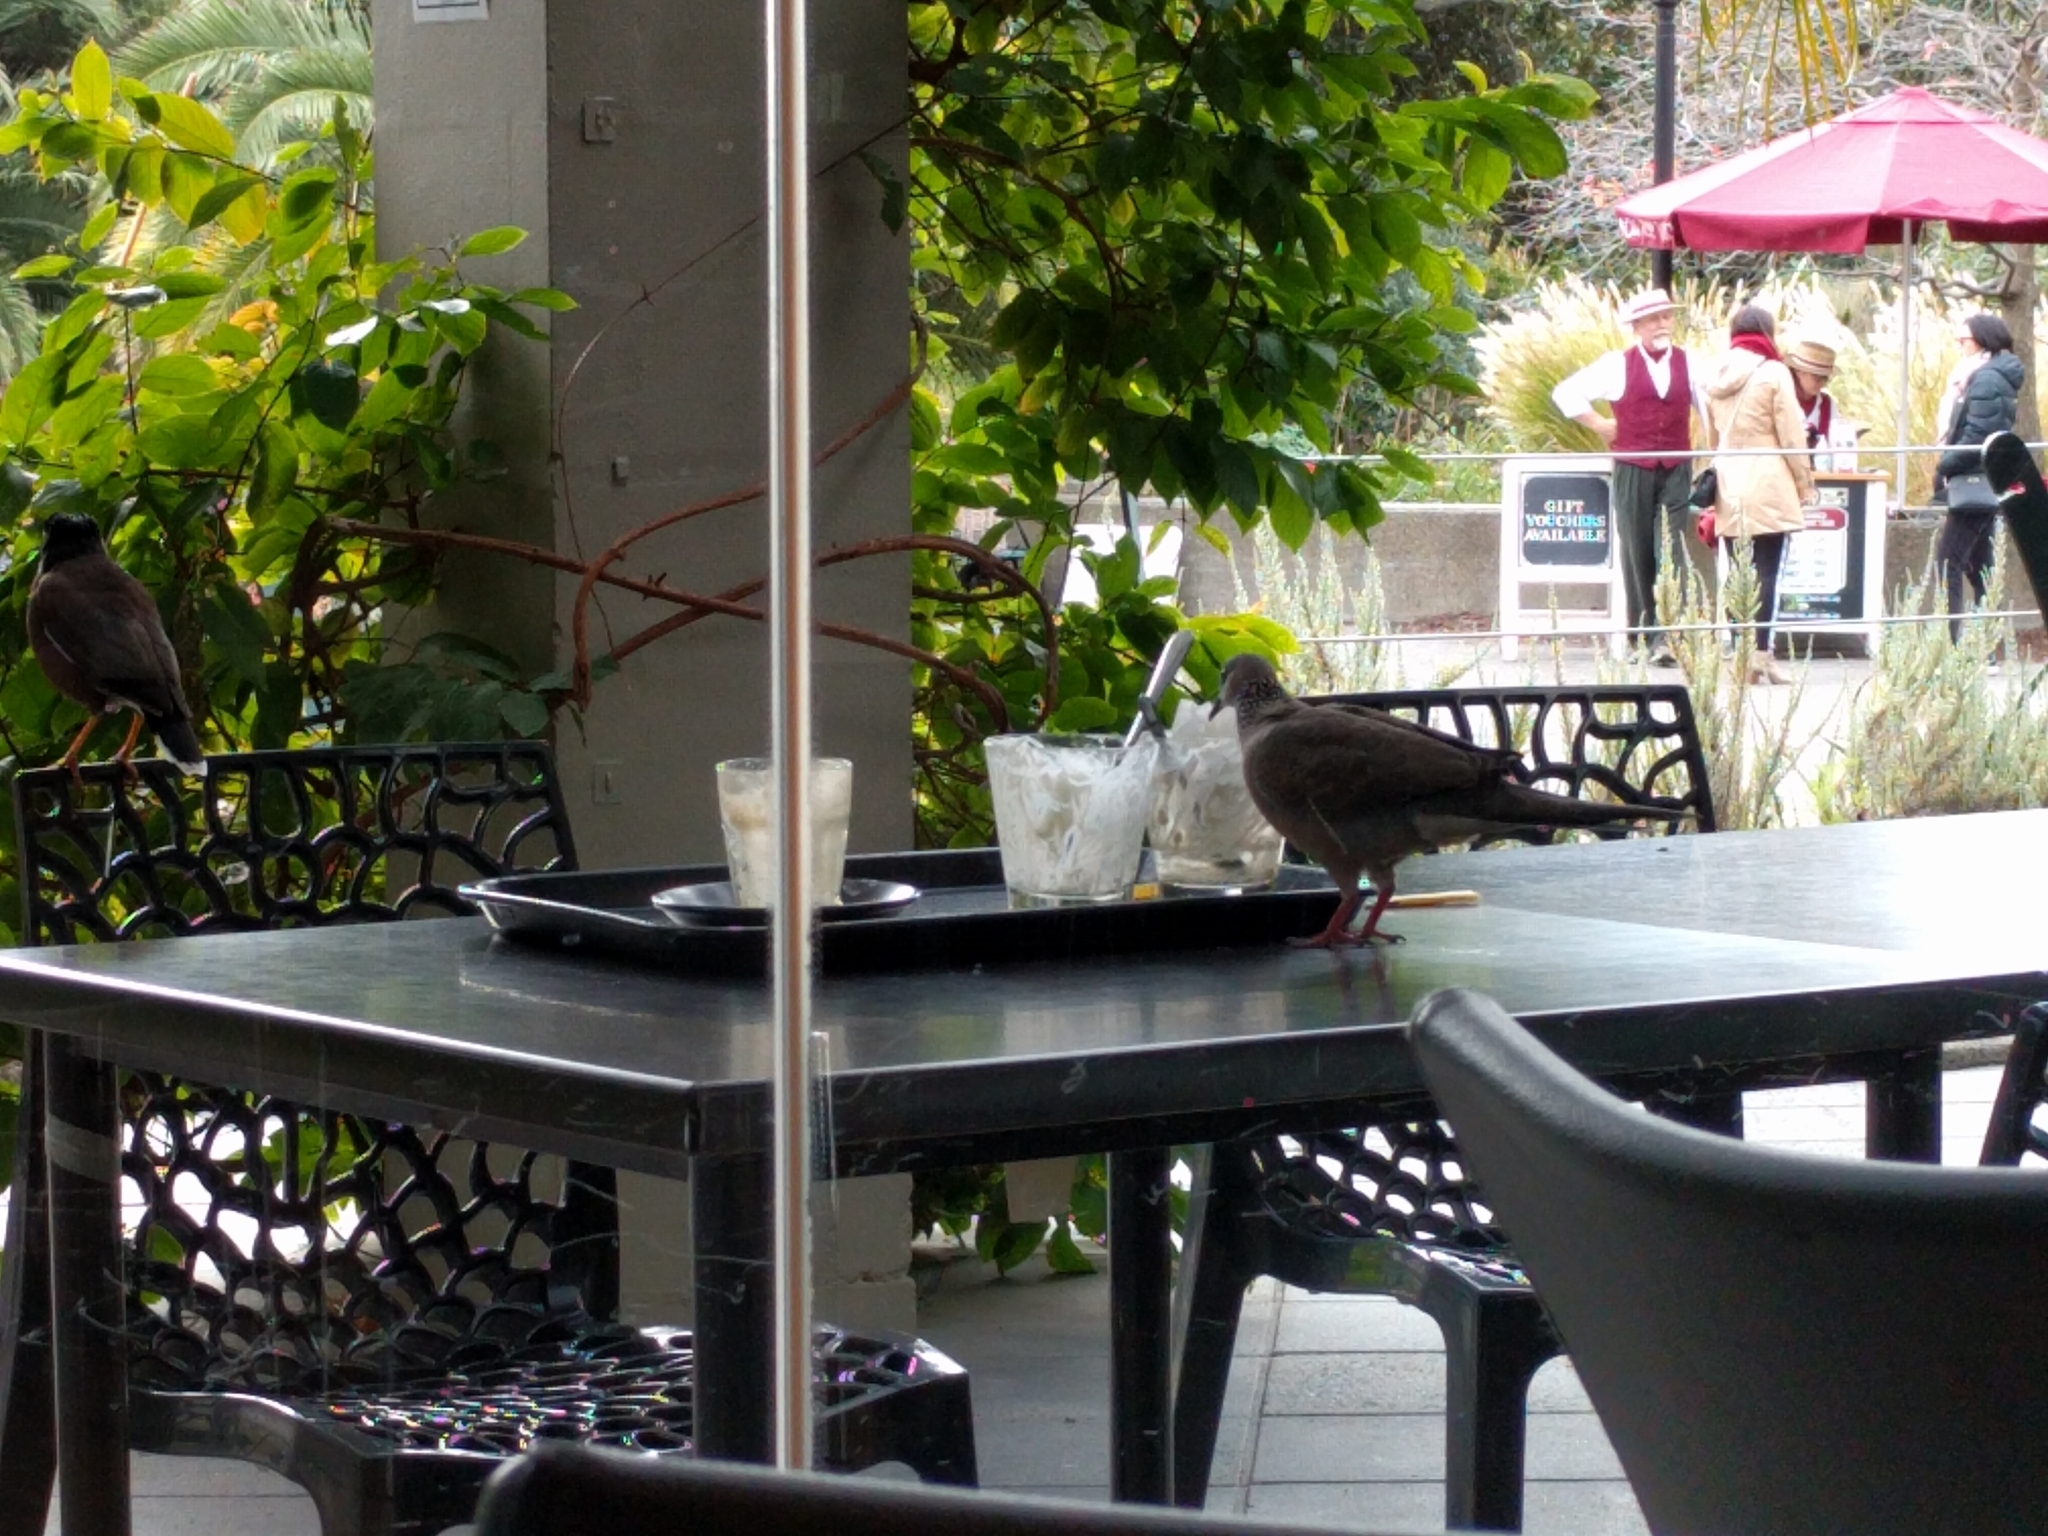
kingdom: Animalia
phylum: Chordata
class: Aves
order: Columbiformes
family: Columbidae
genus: Spilopelia
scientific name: Spilopelia chinensis
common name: Spotted dove
